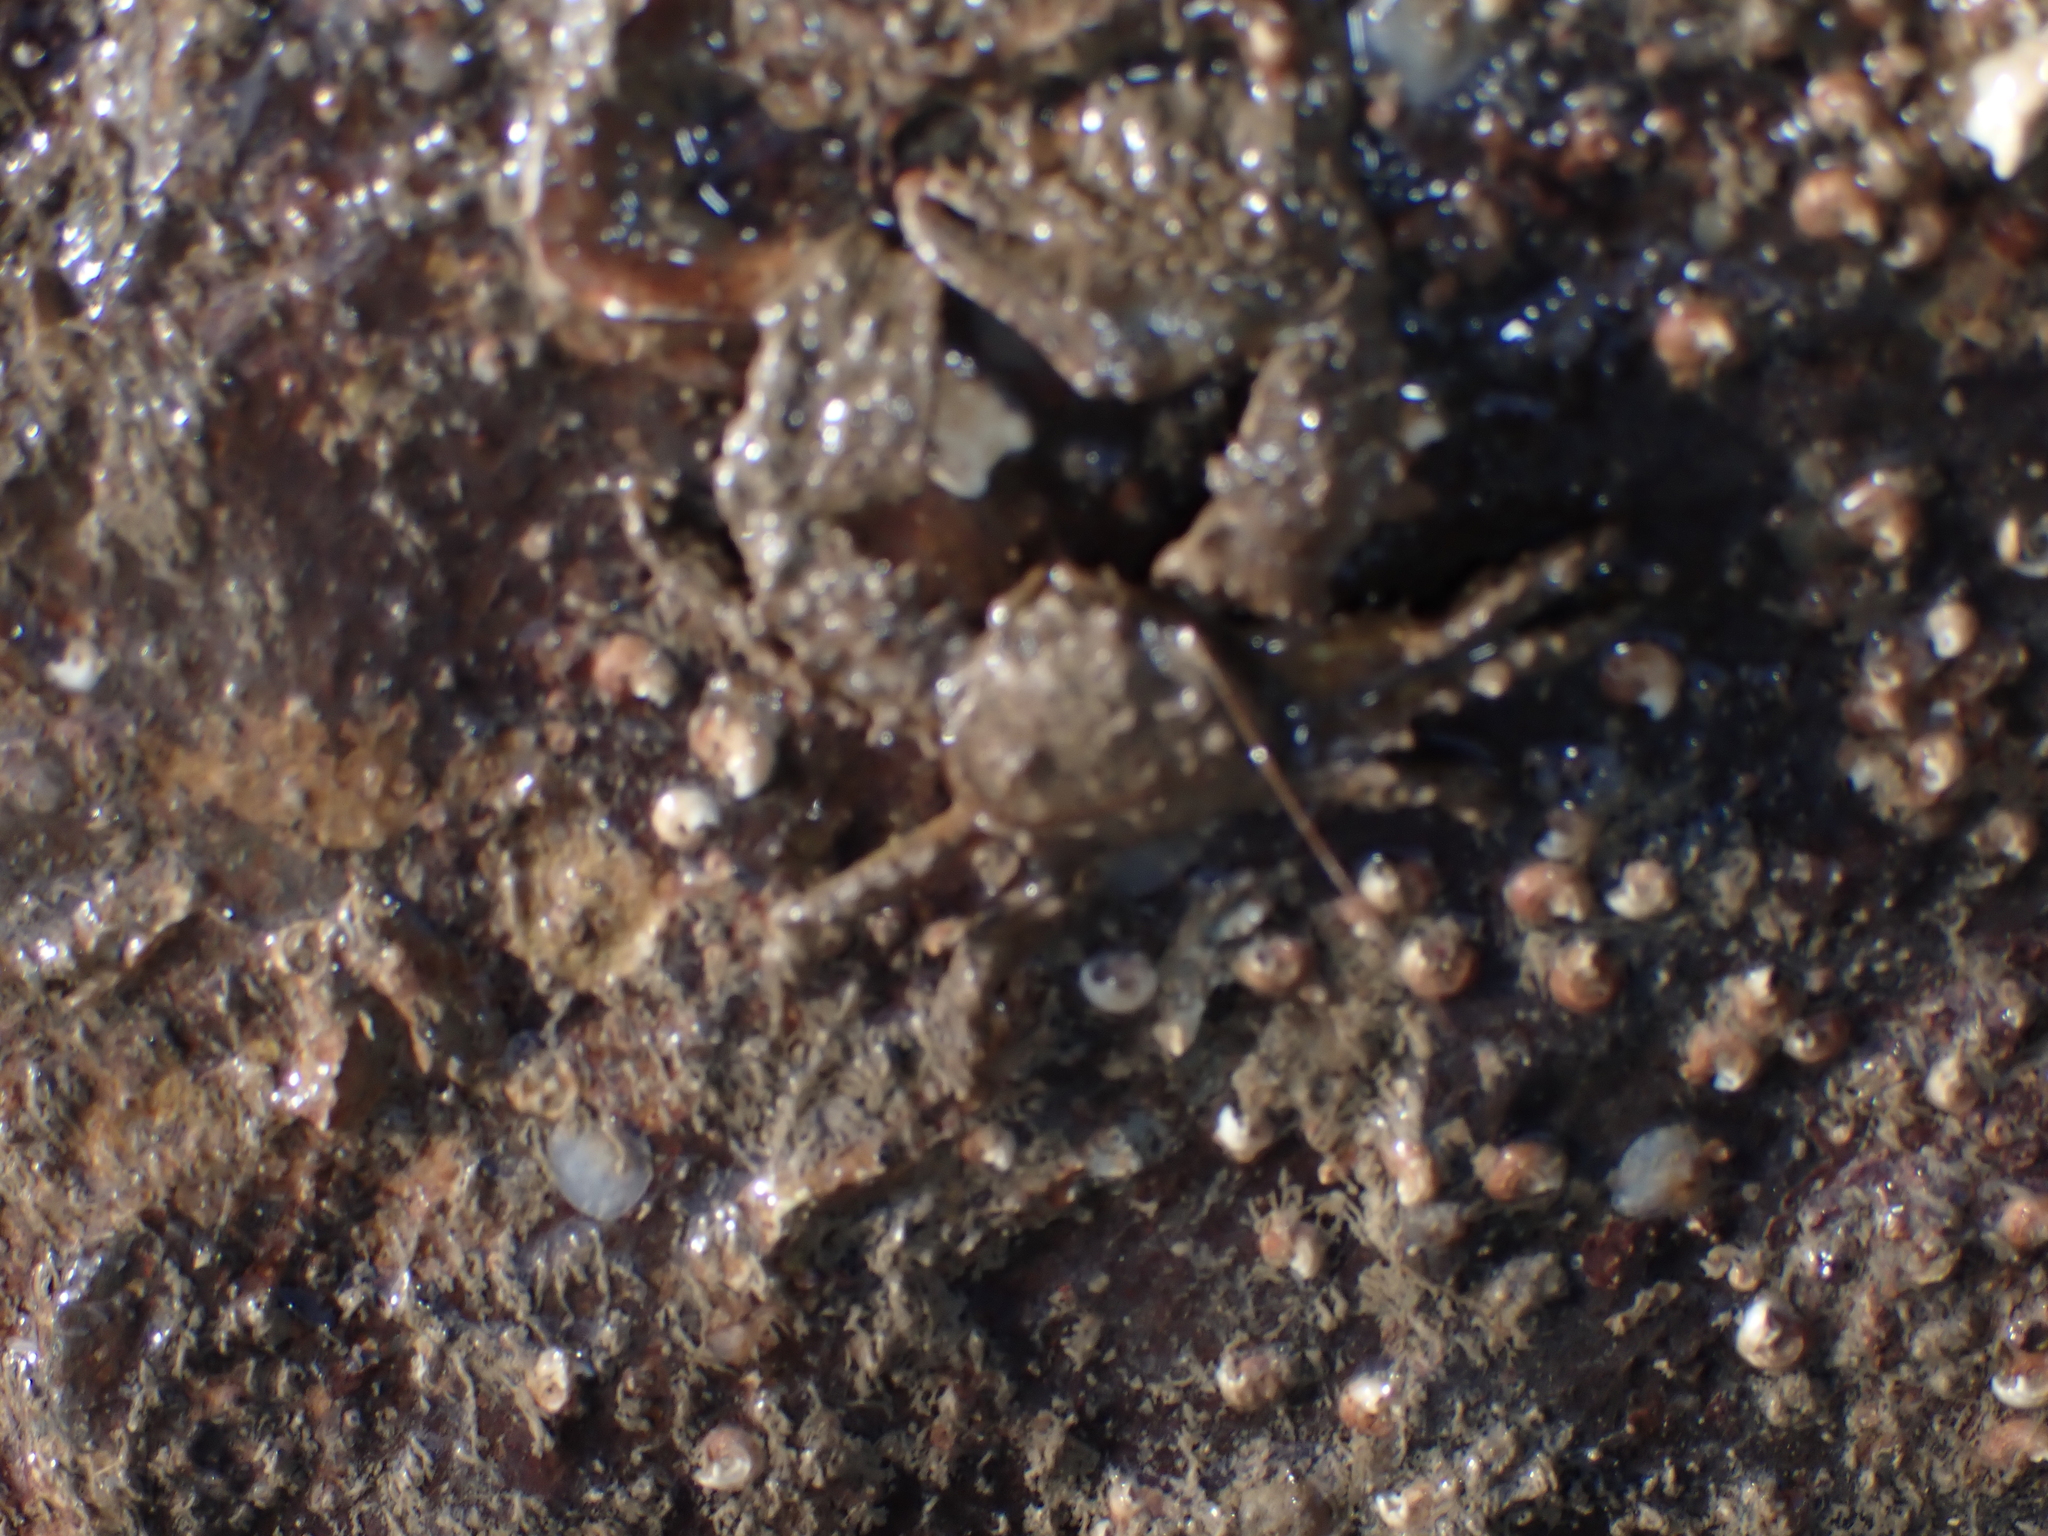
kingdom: Animalia
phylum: Arthropoda
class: Malacostraca
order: Decapoda
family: Porcellanidae
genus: Porcellana
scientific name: Porcellana platycheles
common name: Porcelain crab
